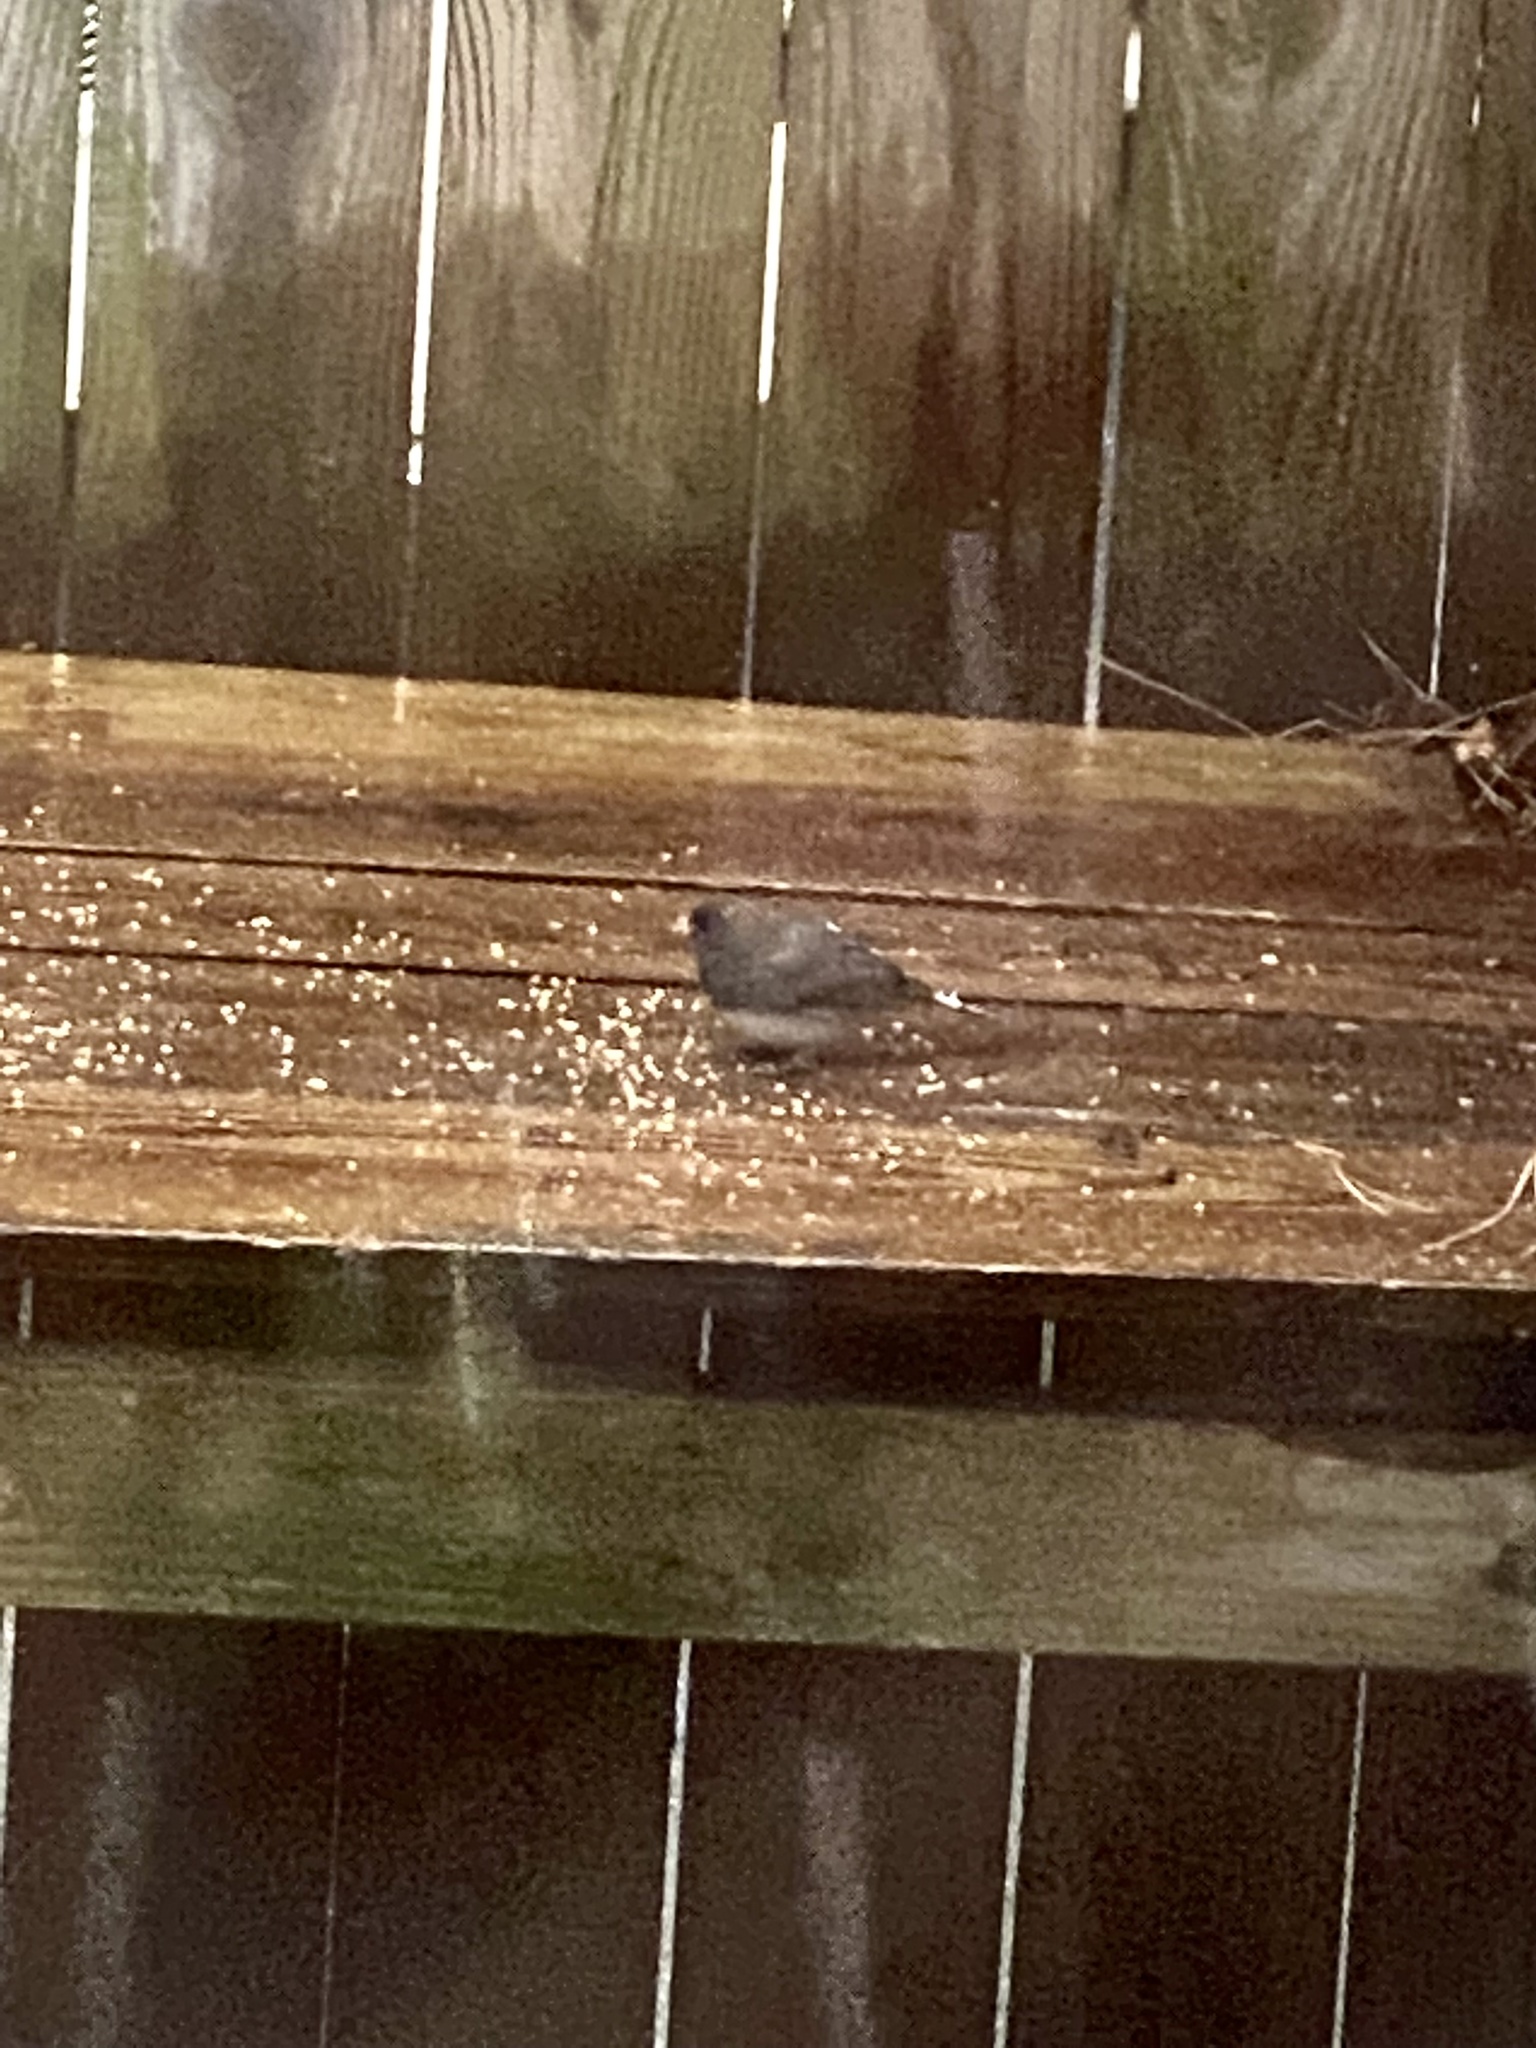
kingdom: Animalia
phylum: Chordata
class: Aves
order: Passeriformes
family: Passerellidae
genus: Junco
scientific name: Junco hyemalis
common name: Dark-eyed junco
